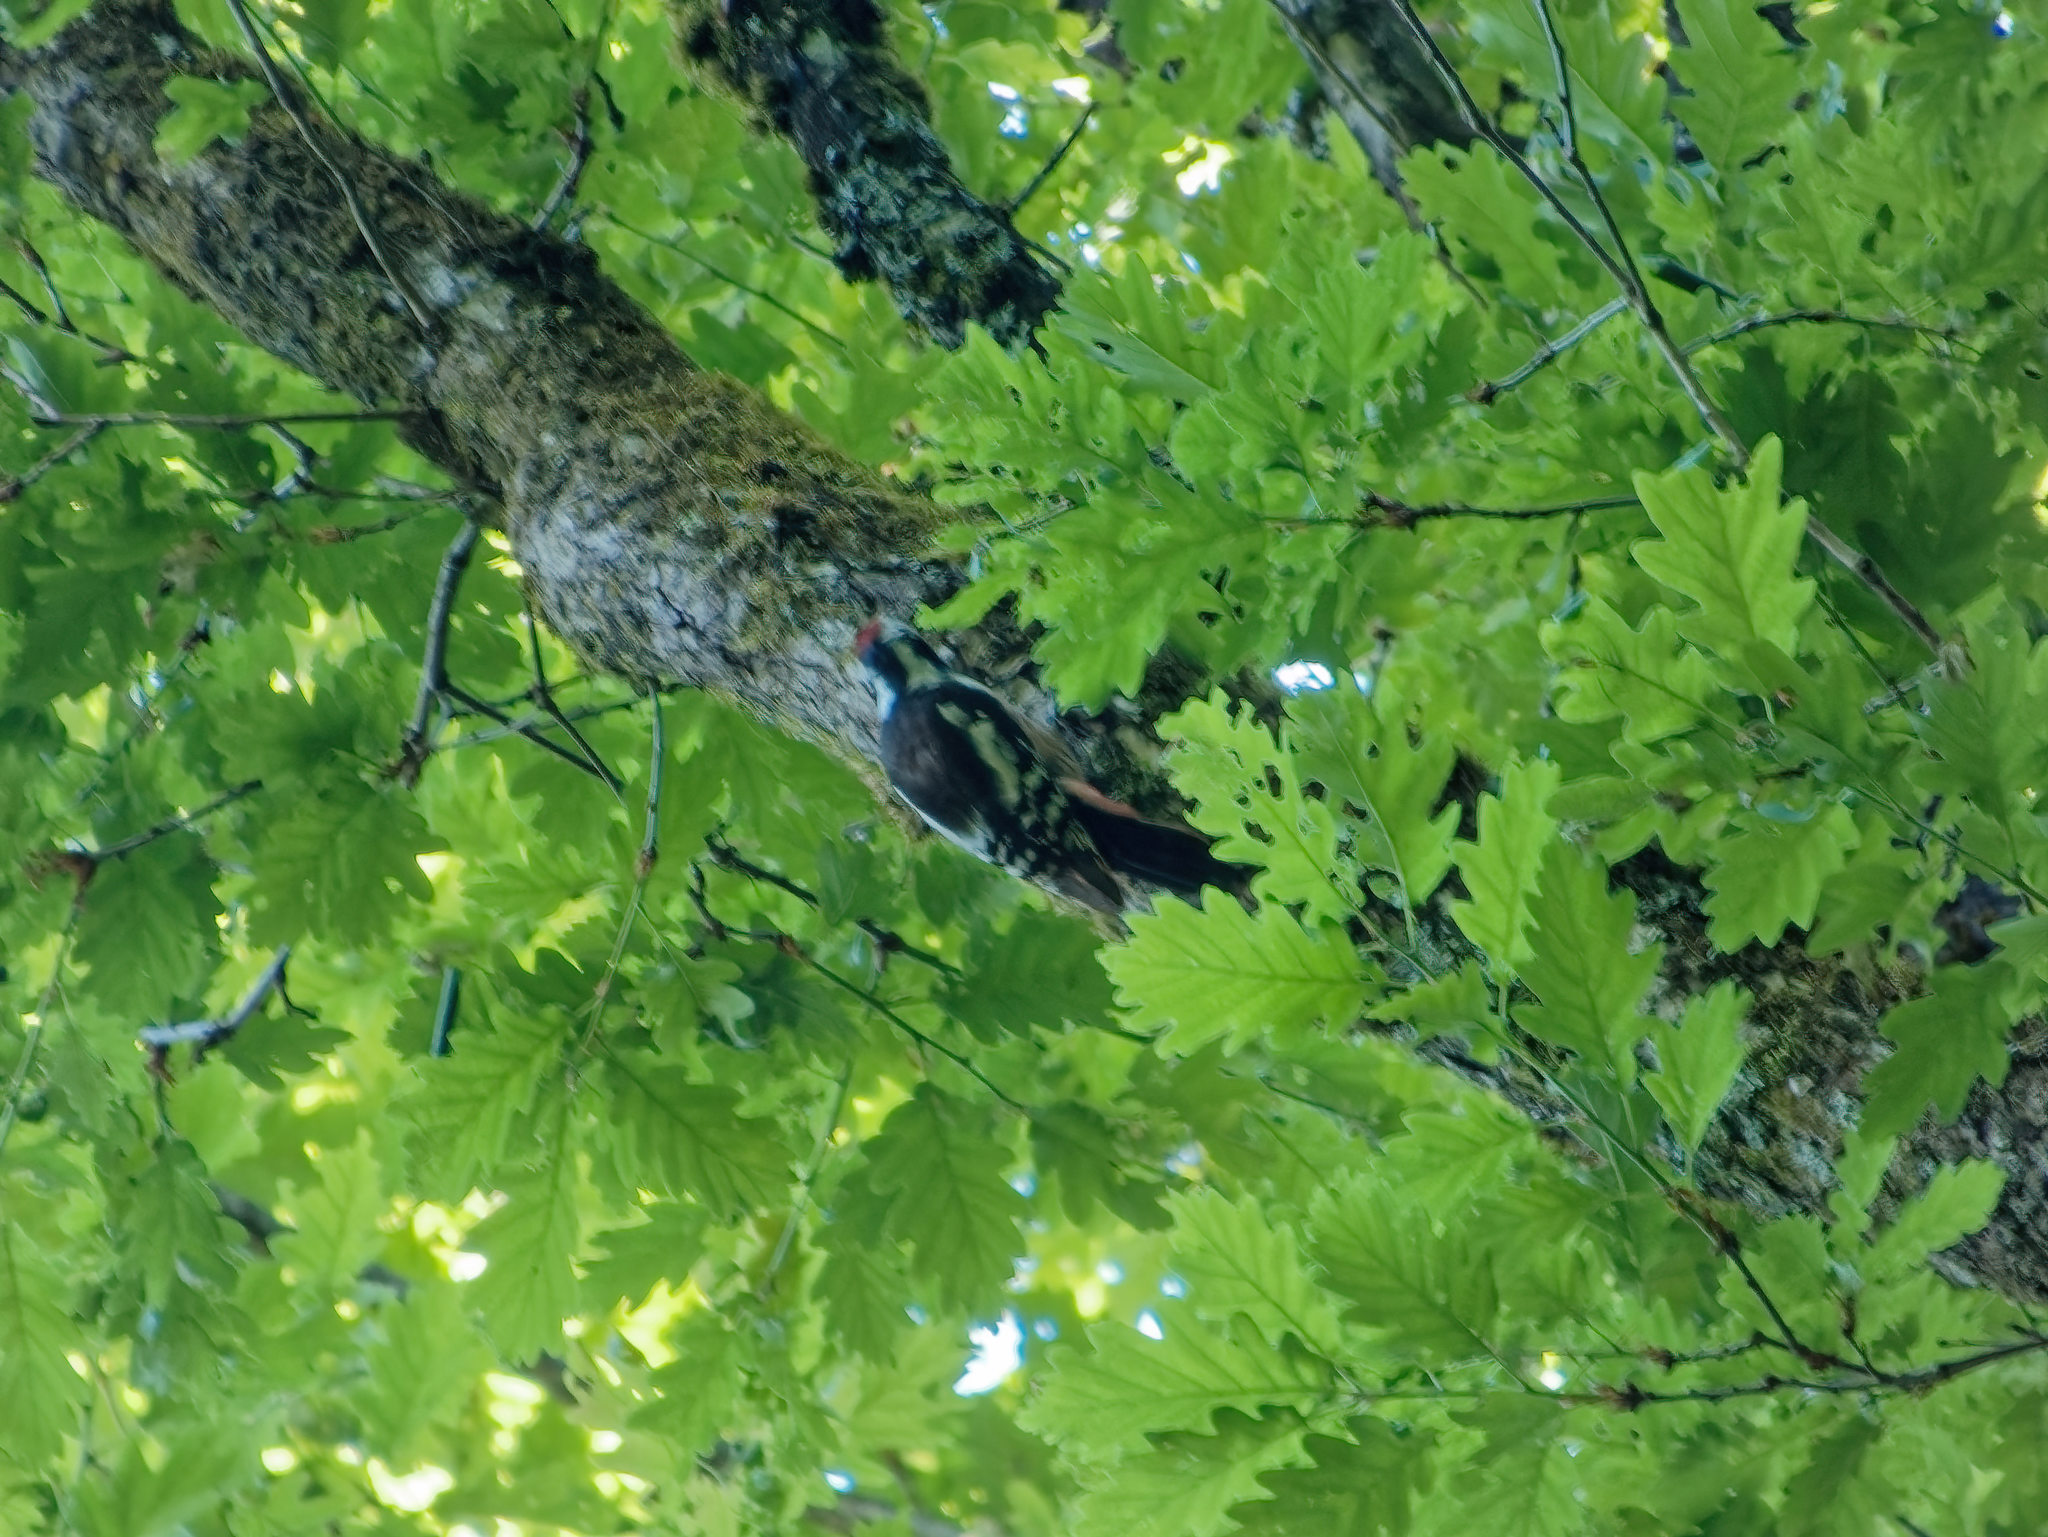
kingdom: Animalia
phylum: Chordata
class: Aves
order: Piciformes
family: Picidae
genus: Dendrocopos
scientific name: Dendrocopos major
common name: Great spotted woodpecker
